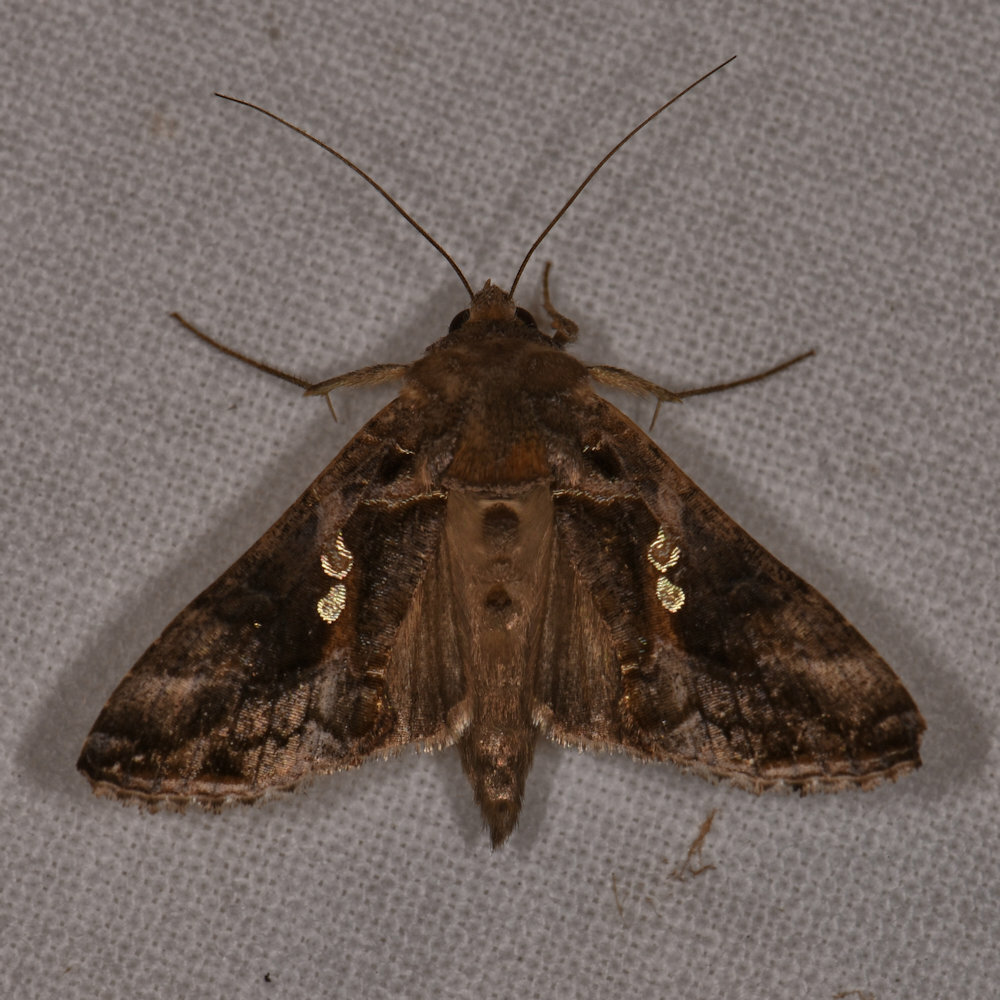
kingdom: Animalia
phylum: Arthropoda
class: Insecta
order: Lepidoptera
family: Noctuidae
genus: Chrysodeixis
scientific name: Chrysodeixis includens
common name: Cutworm moth
